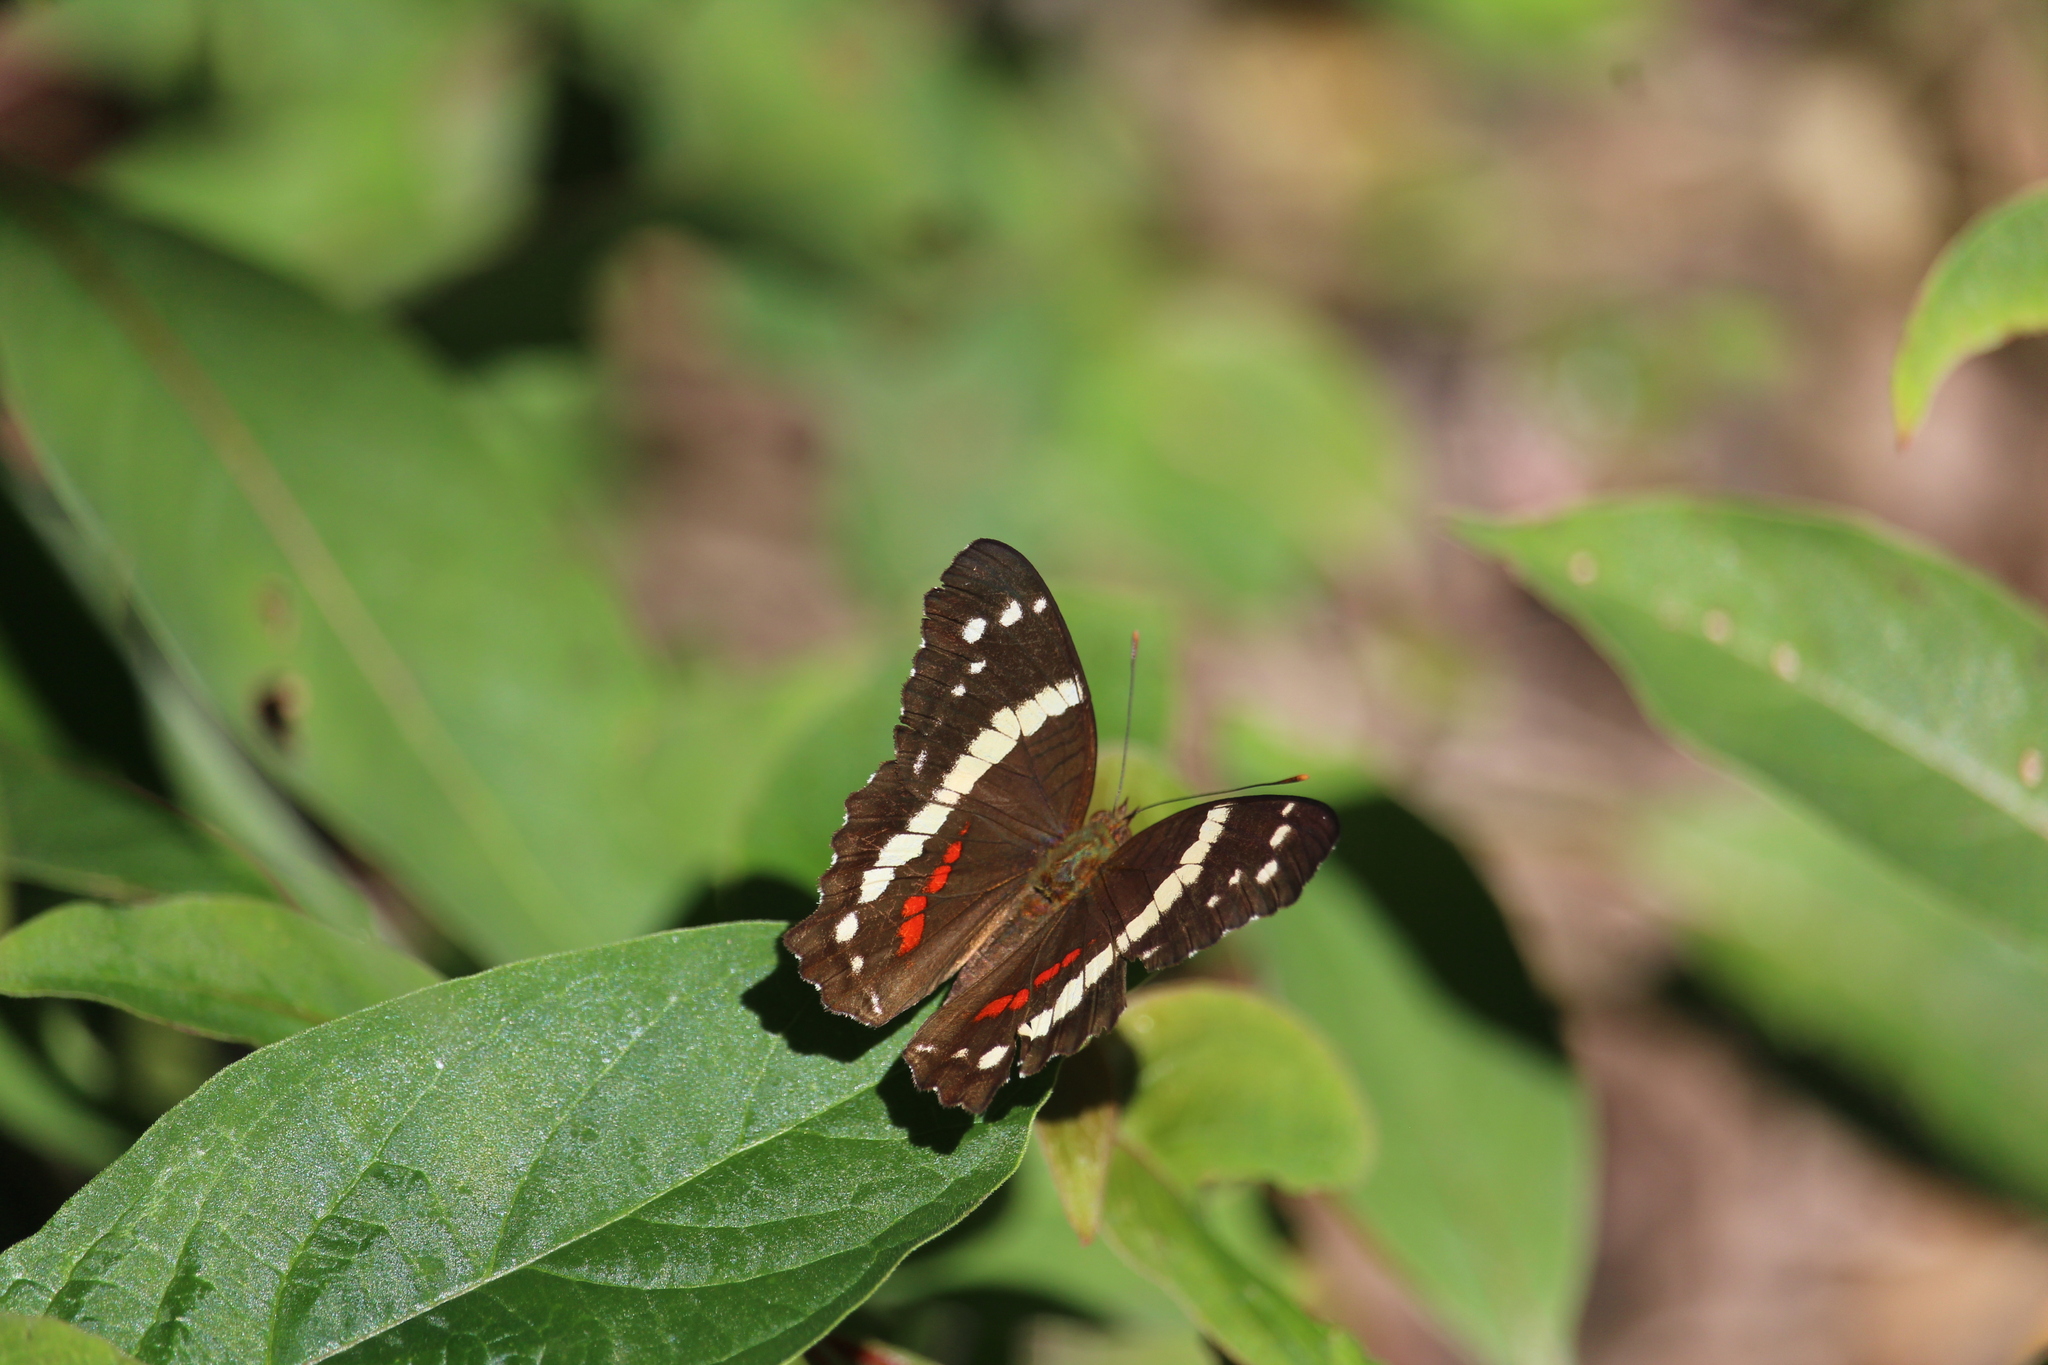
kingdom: Animalia
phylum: Arthropoda
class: Insecta
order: Lepidoptera
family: Nymphalidae
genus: Anartia
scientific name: Anartia fatima
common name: Banded peacock
